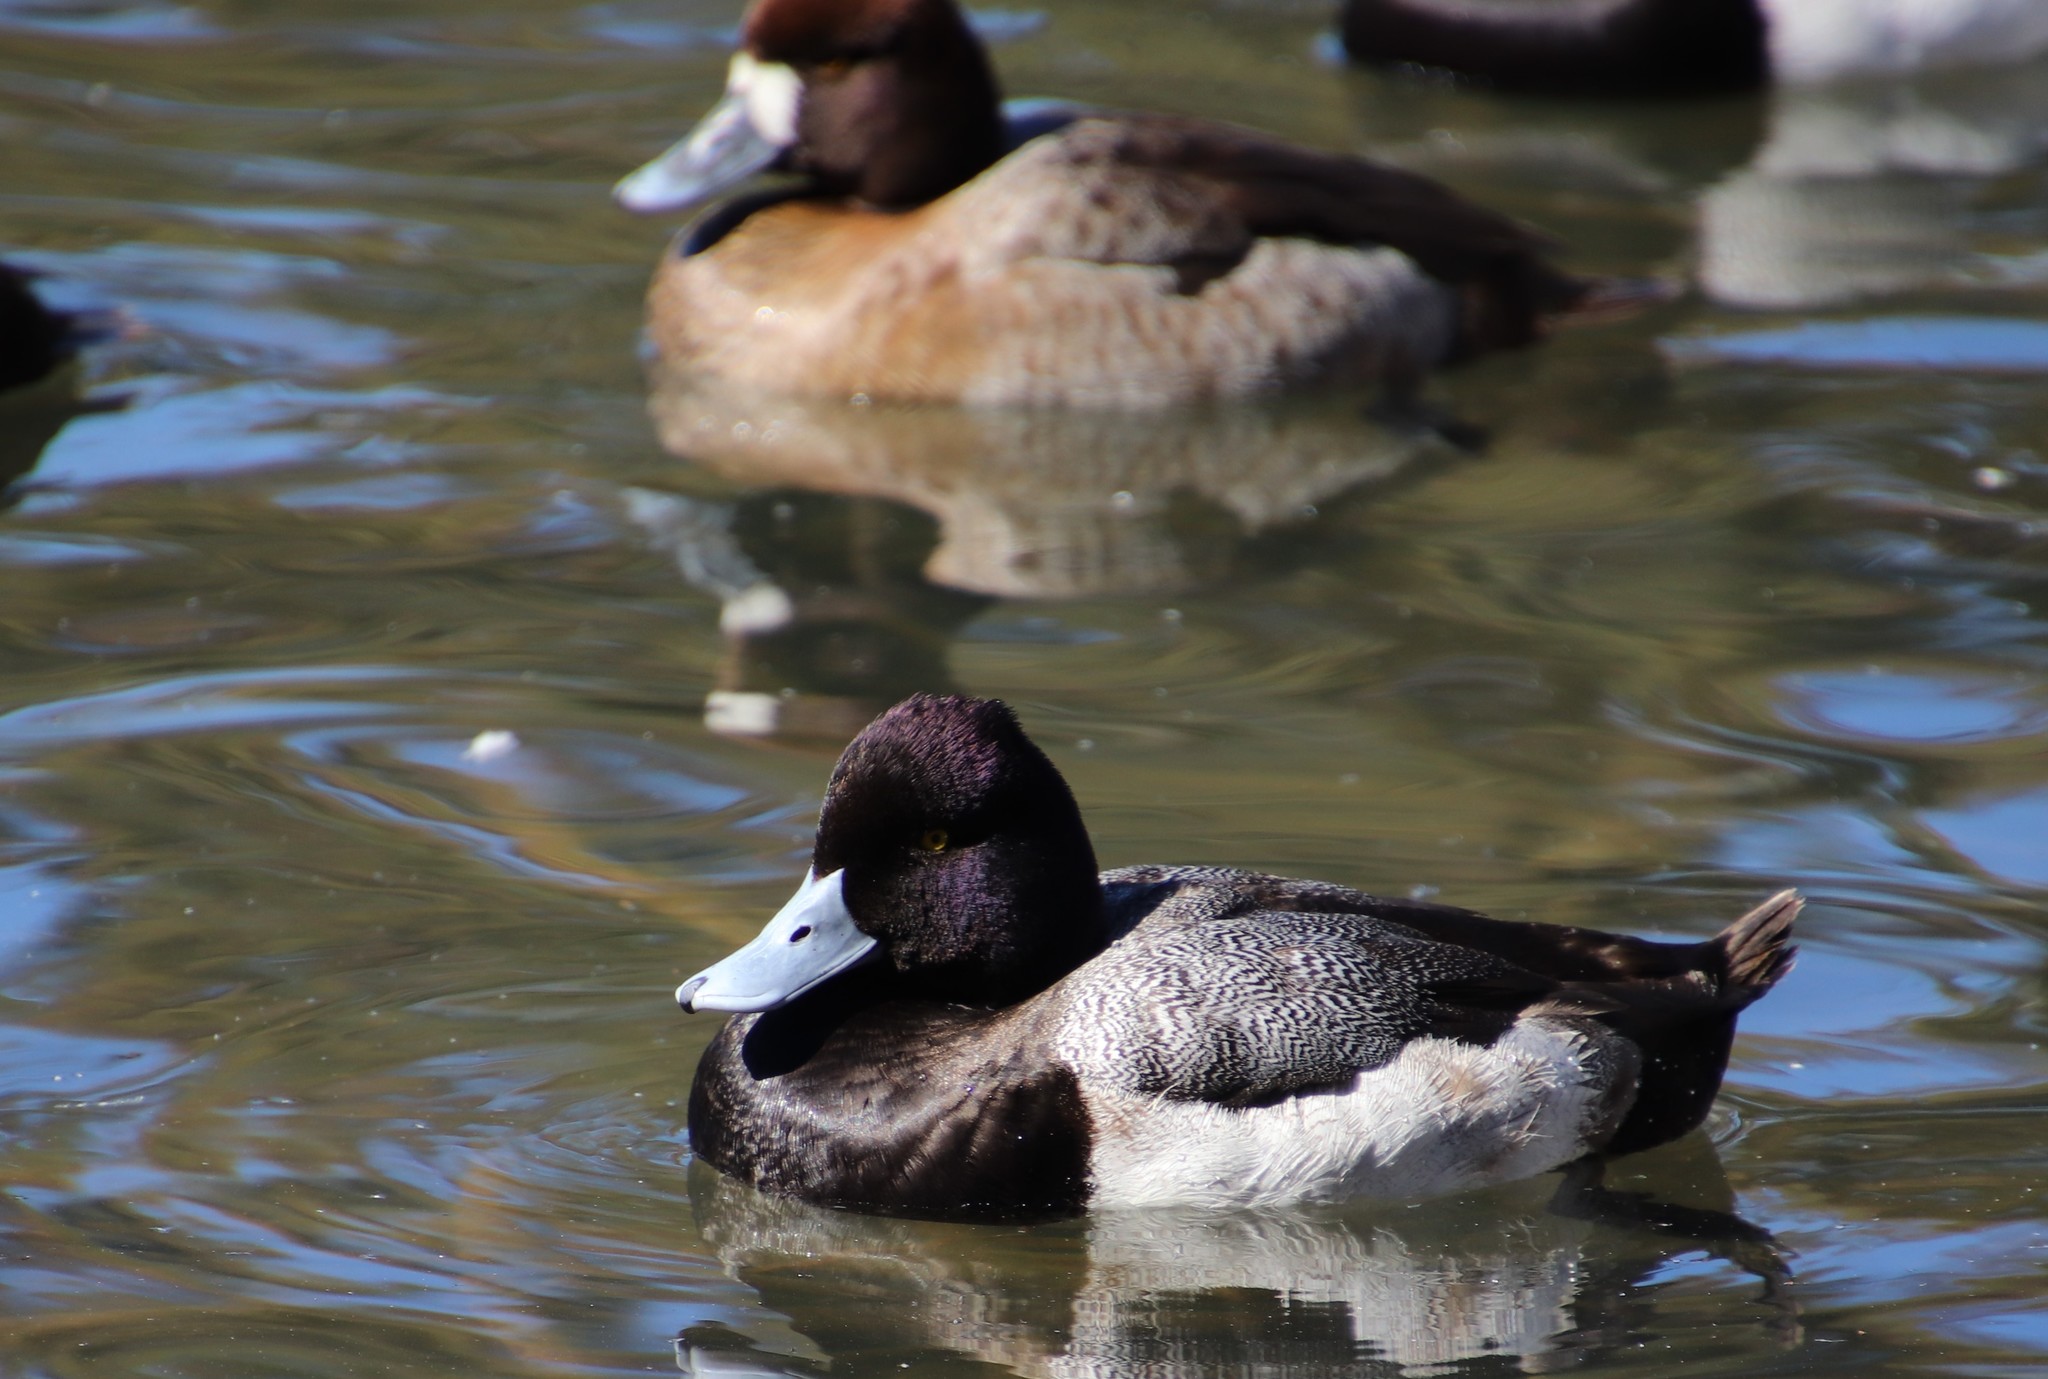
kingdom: Animalia
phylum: Chordata
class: Aves
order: Anseriformes
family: Anatidae
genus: Aythya
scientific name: Aythya affinis
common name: Lesser scaup
